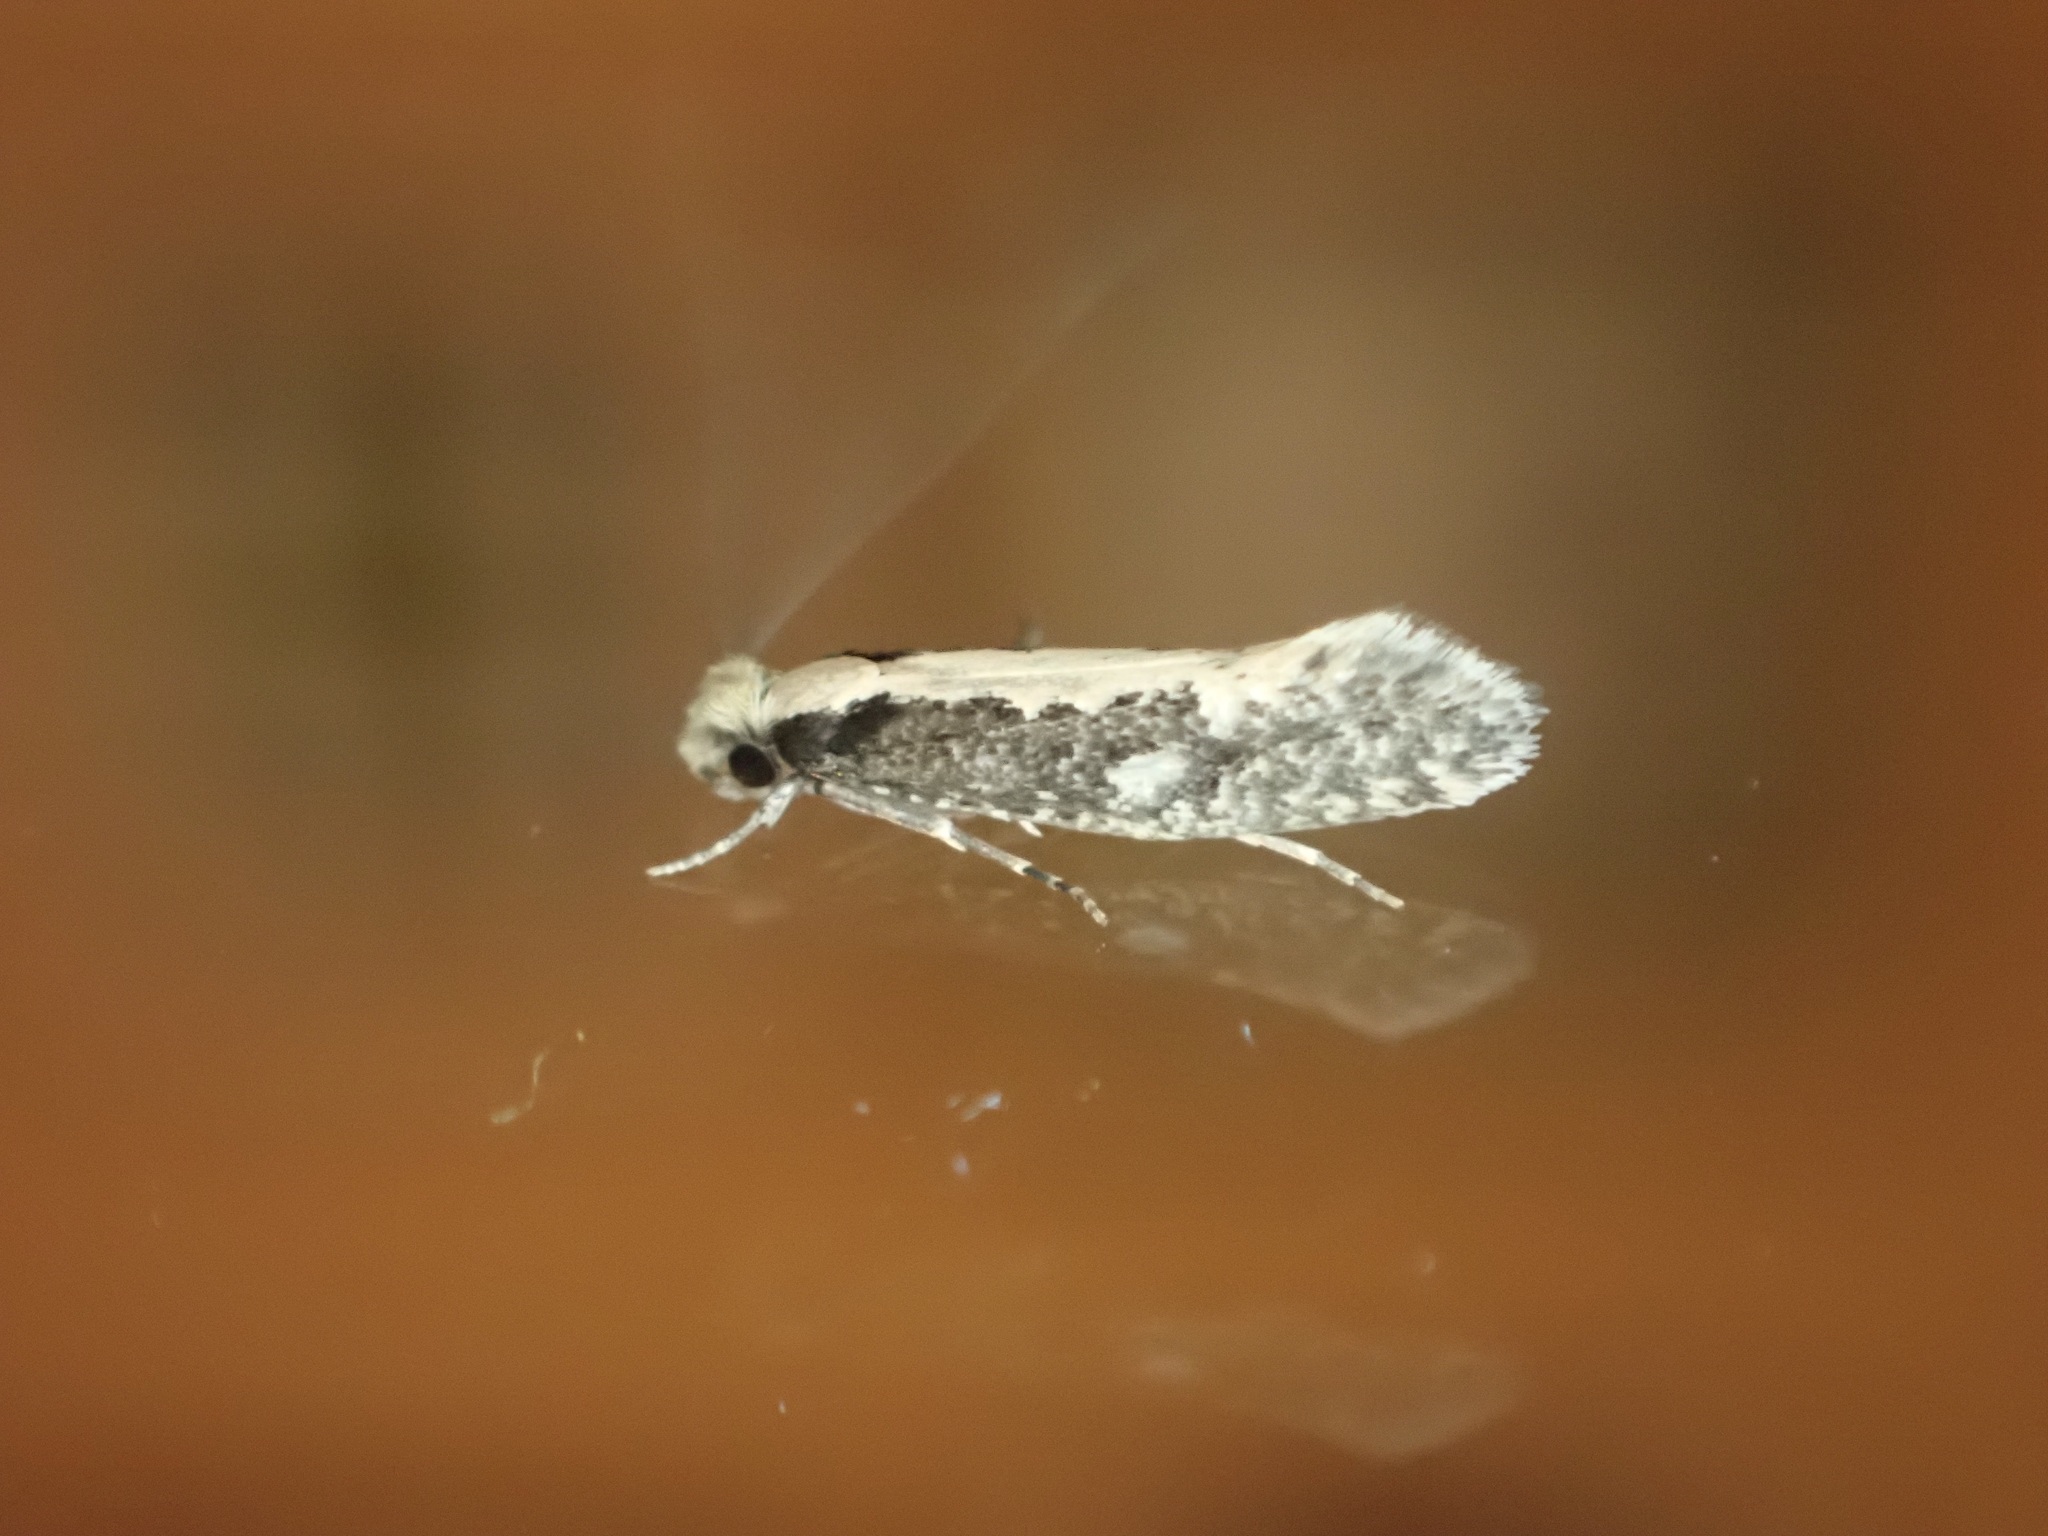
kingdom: Animalia
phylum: Arthropoda
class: Insecta
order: Lepidoptera
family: Tineidae
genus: Monopis
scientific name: Monopis crocicapitella
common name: Moth
